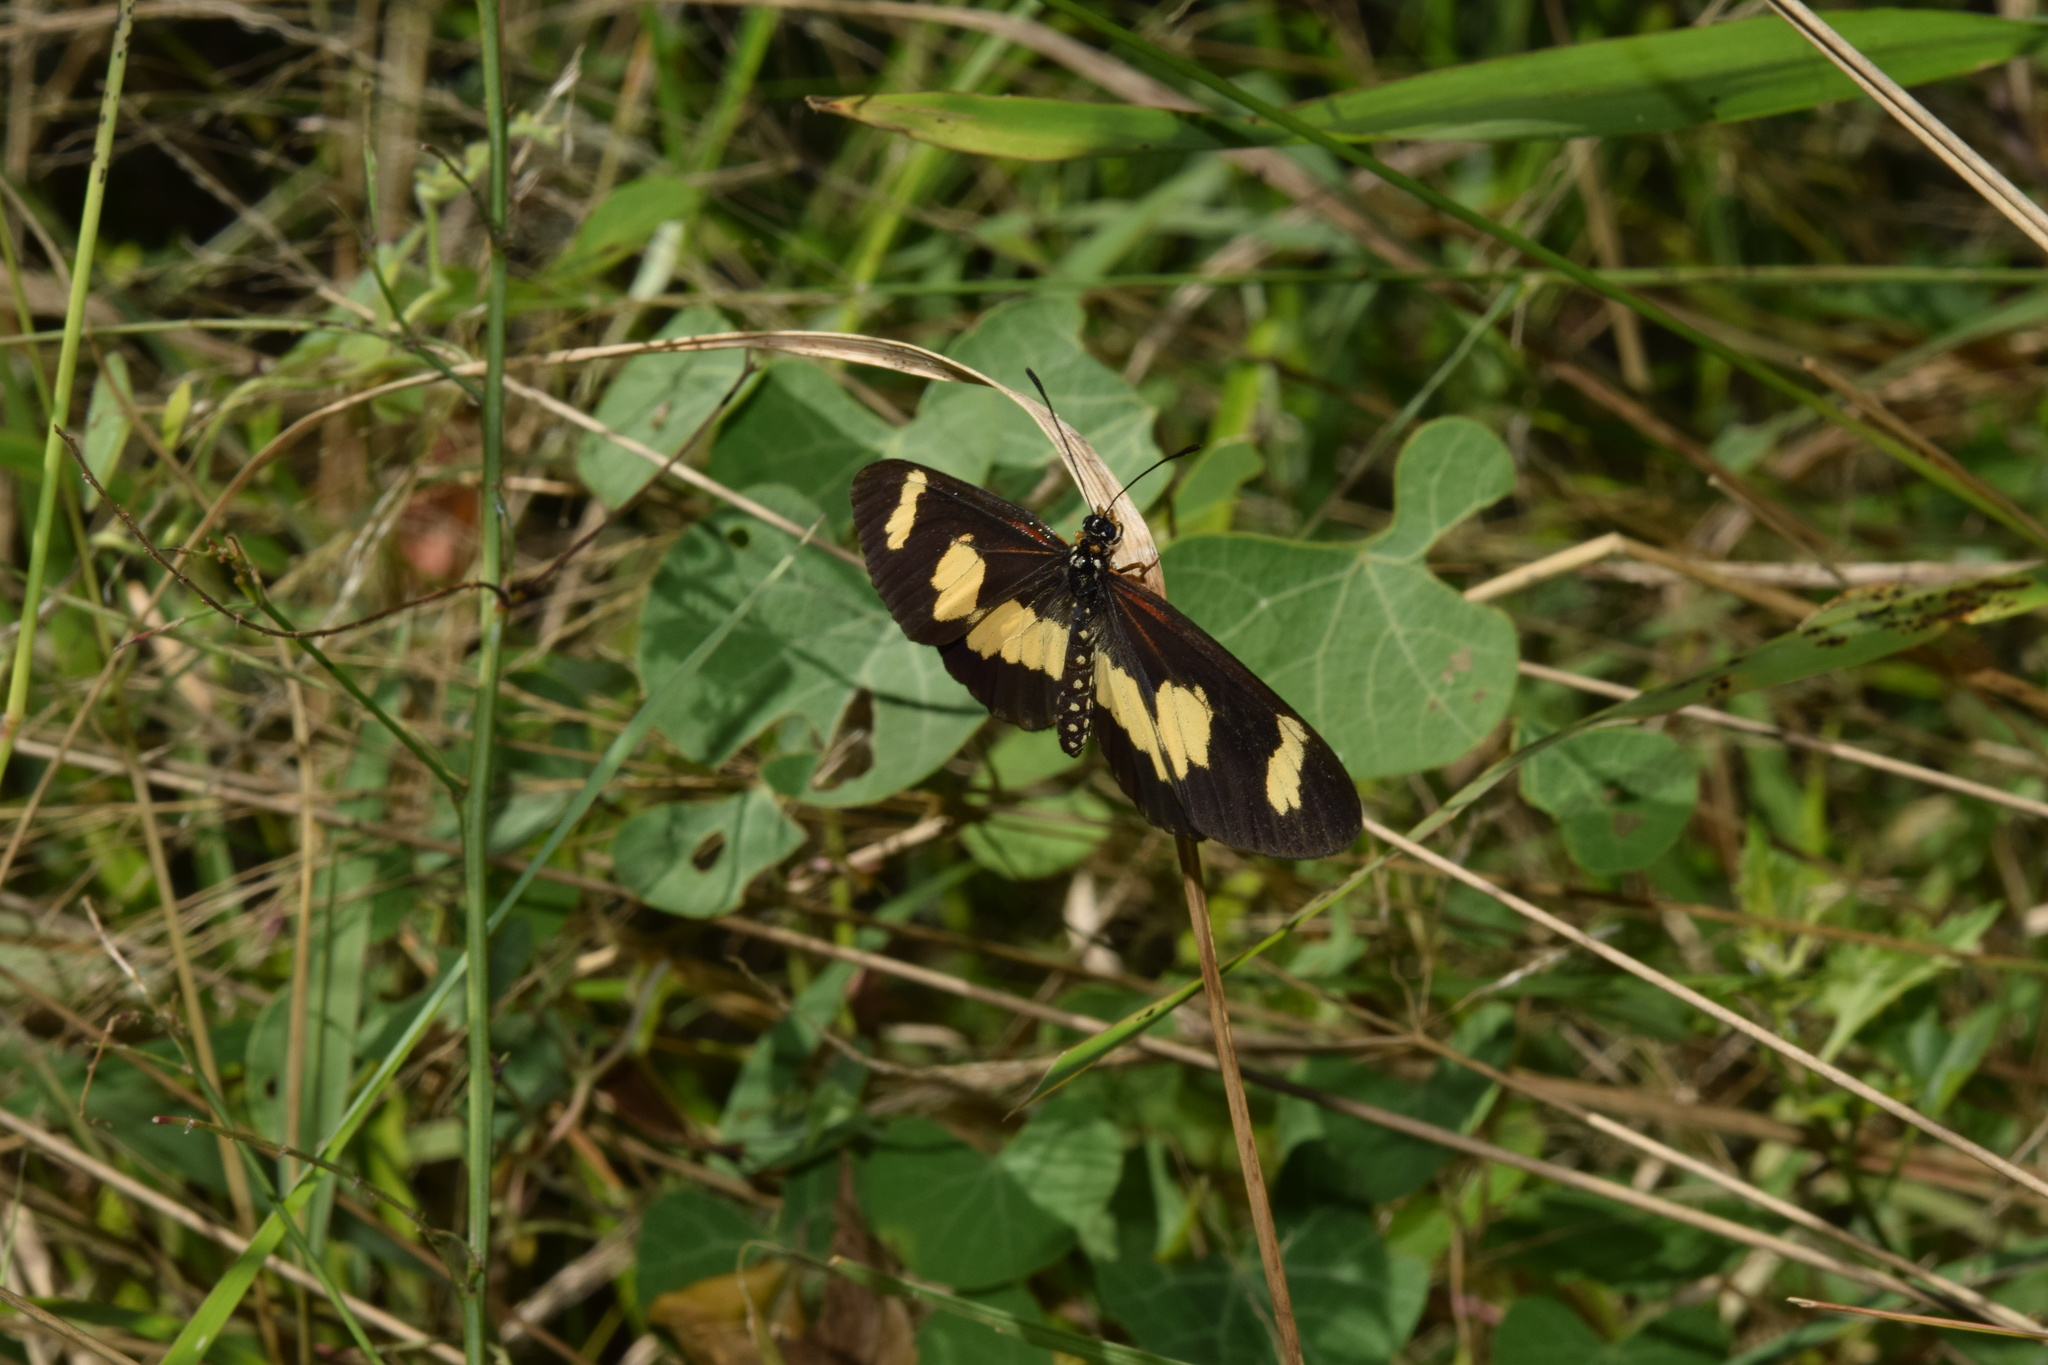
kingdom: Animalia
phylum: Arthropoda
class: Insecta
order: Lepidoptera
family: Nymphalidae
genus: Acraea
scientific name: Acraea cabira
